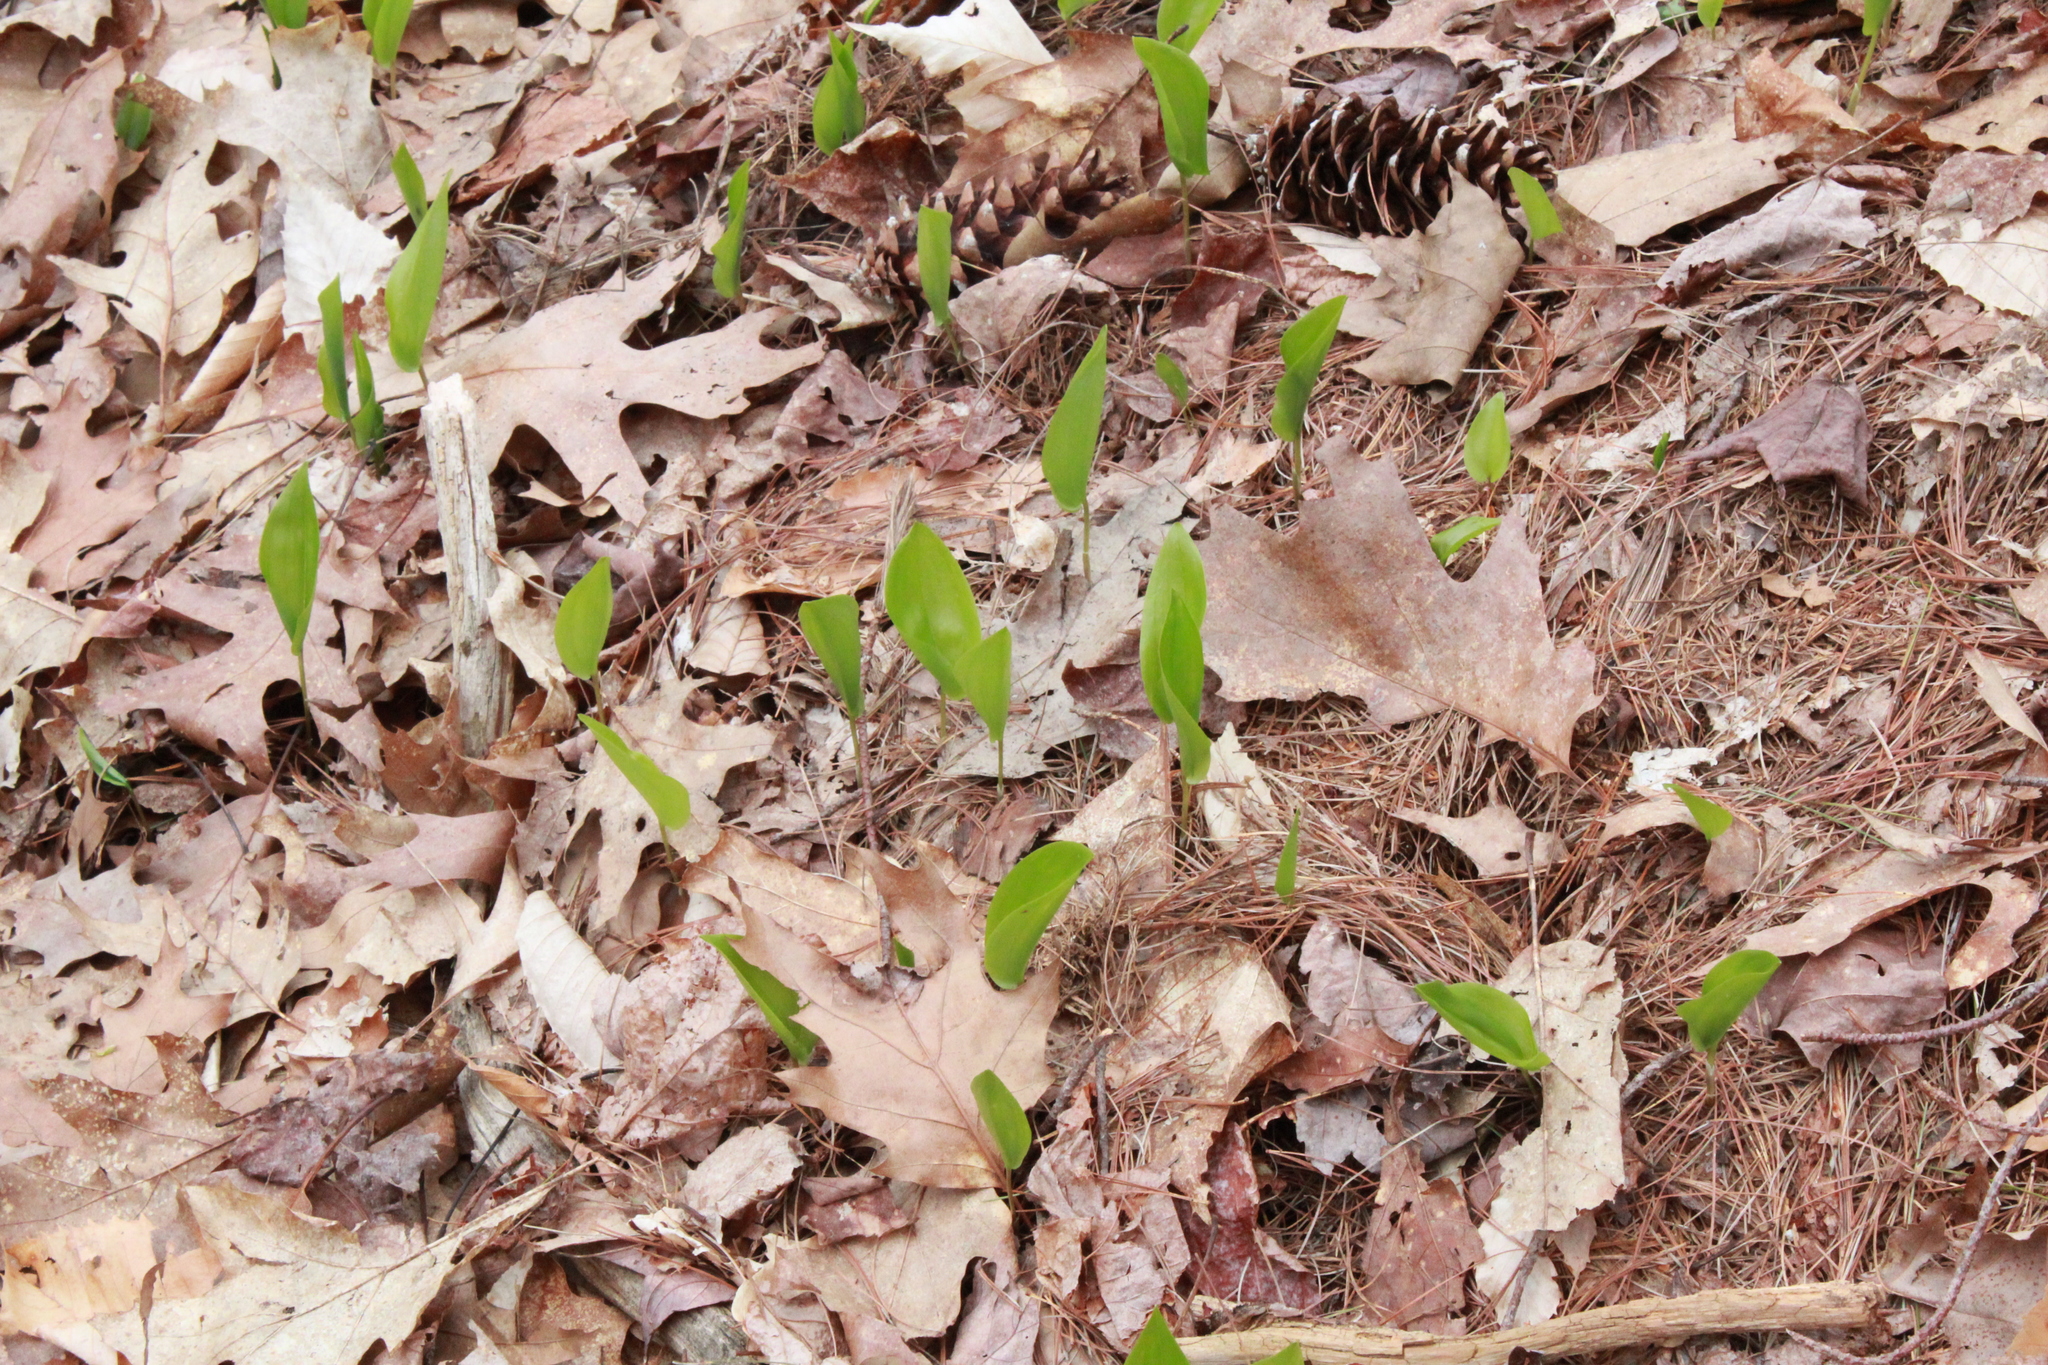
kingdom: Plantae
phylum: Tracheophyta
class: Liliopsida
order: Asparagales
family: Asparagaceae
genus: Maianthemum
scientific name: Maianthemum canadense
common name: False lily-of-the-valley
